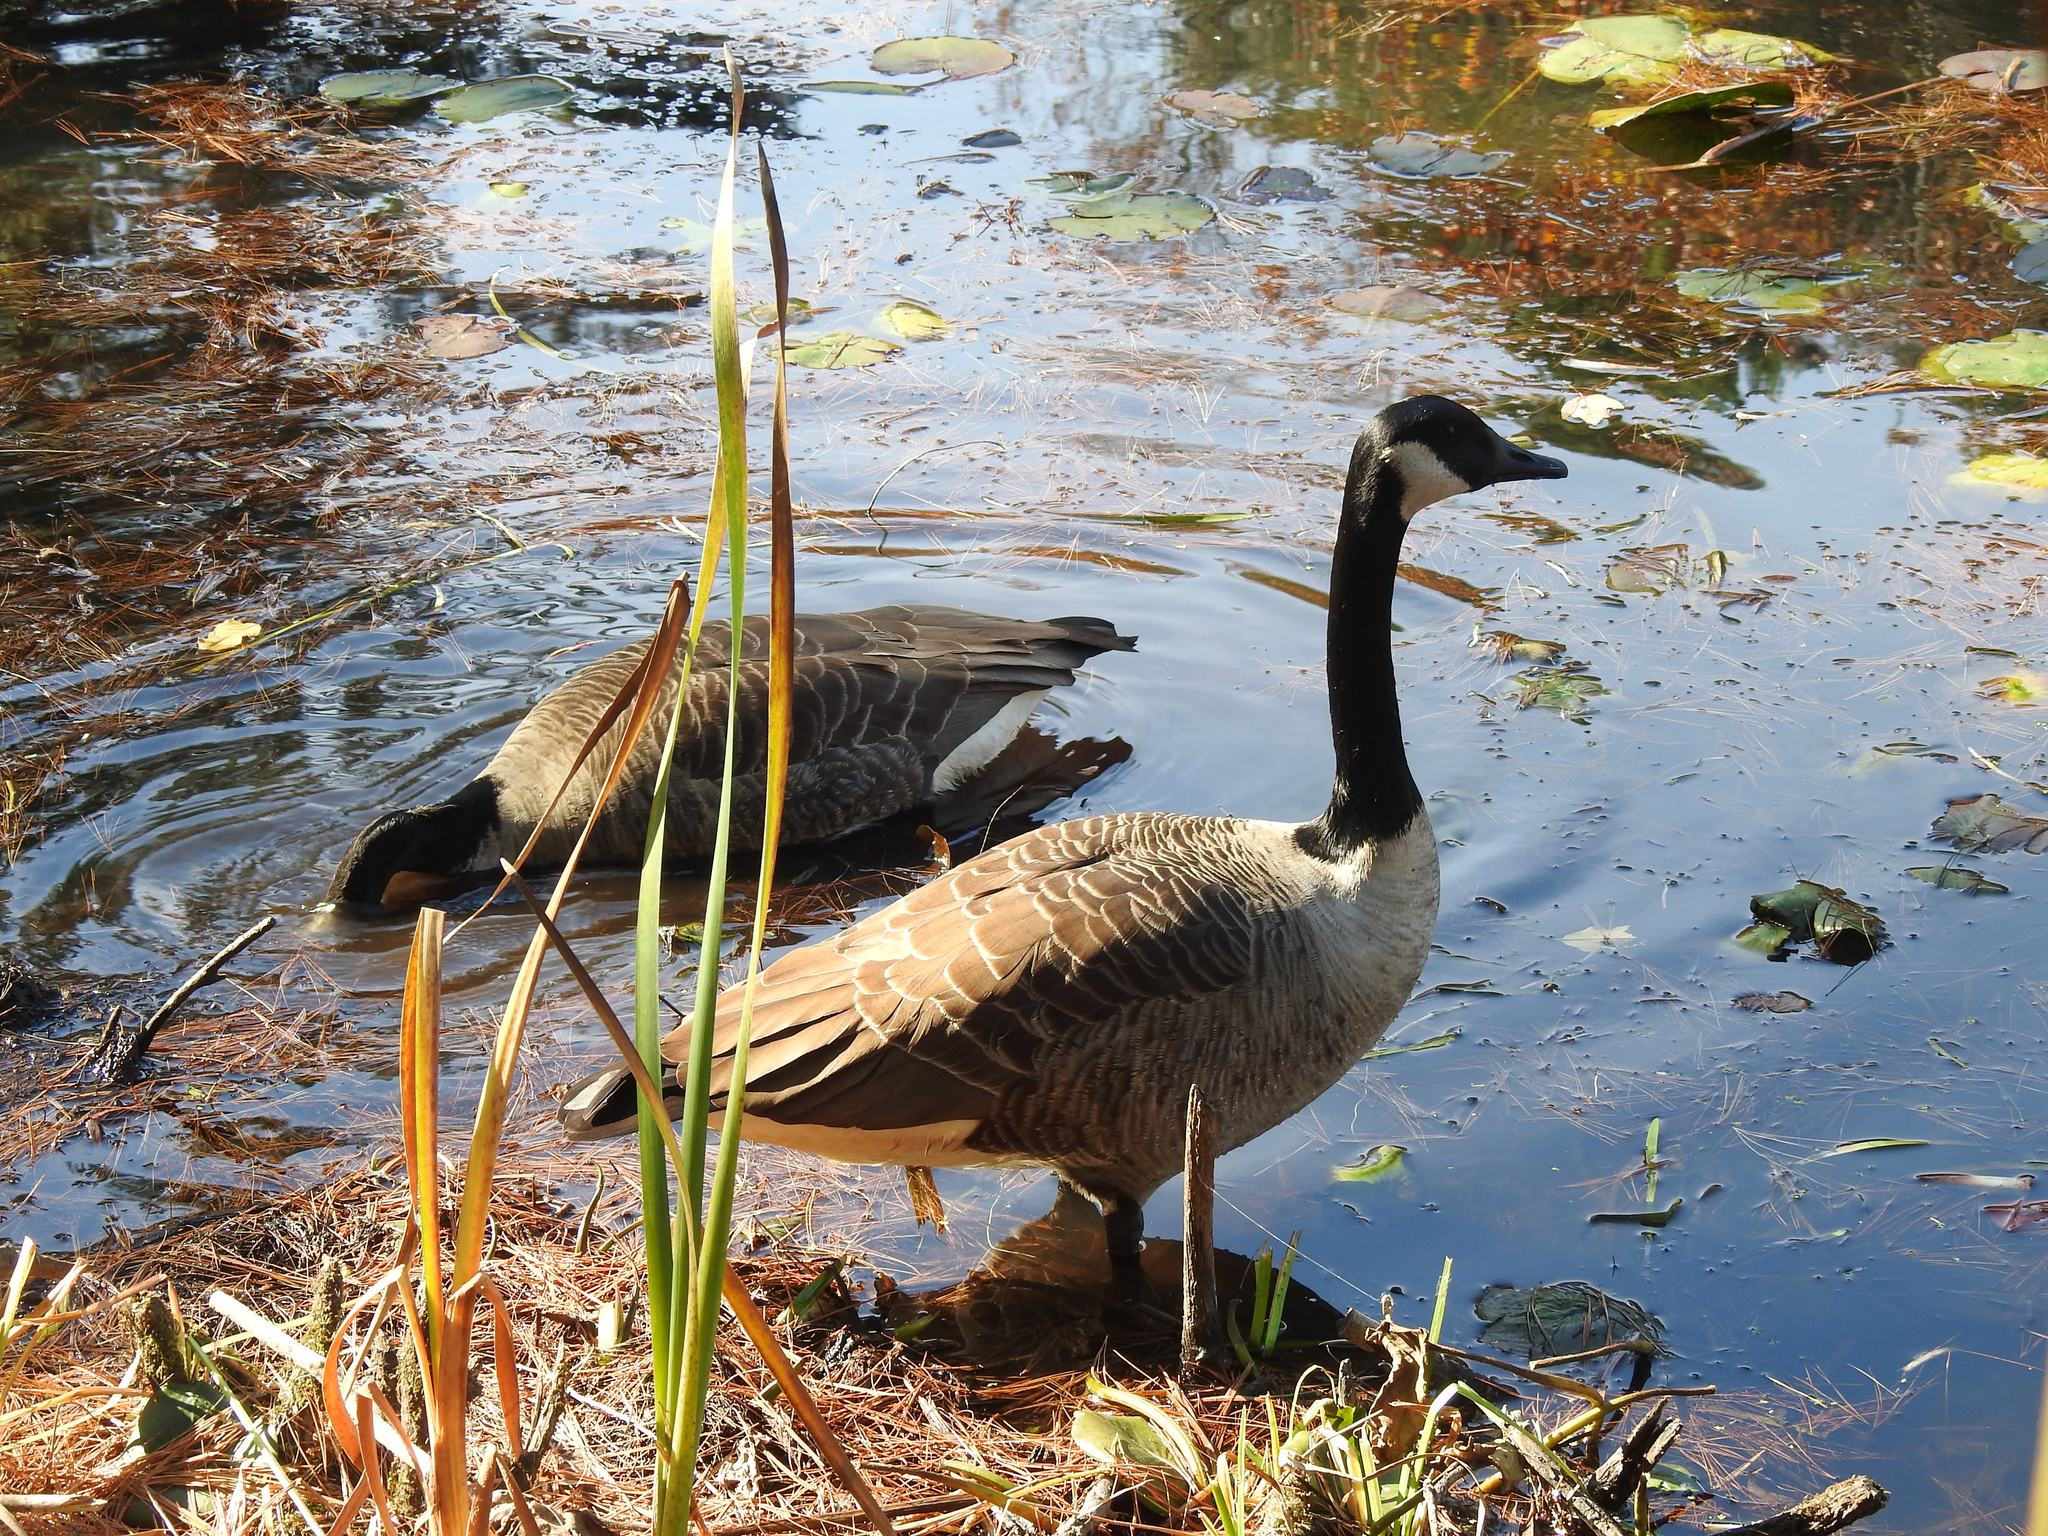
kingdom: Animalia
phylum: Chordata
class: Aves
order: Anseriformes
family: Anatidae
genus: Branta
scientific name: Branta canadensis
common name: Canada goose
